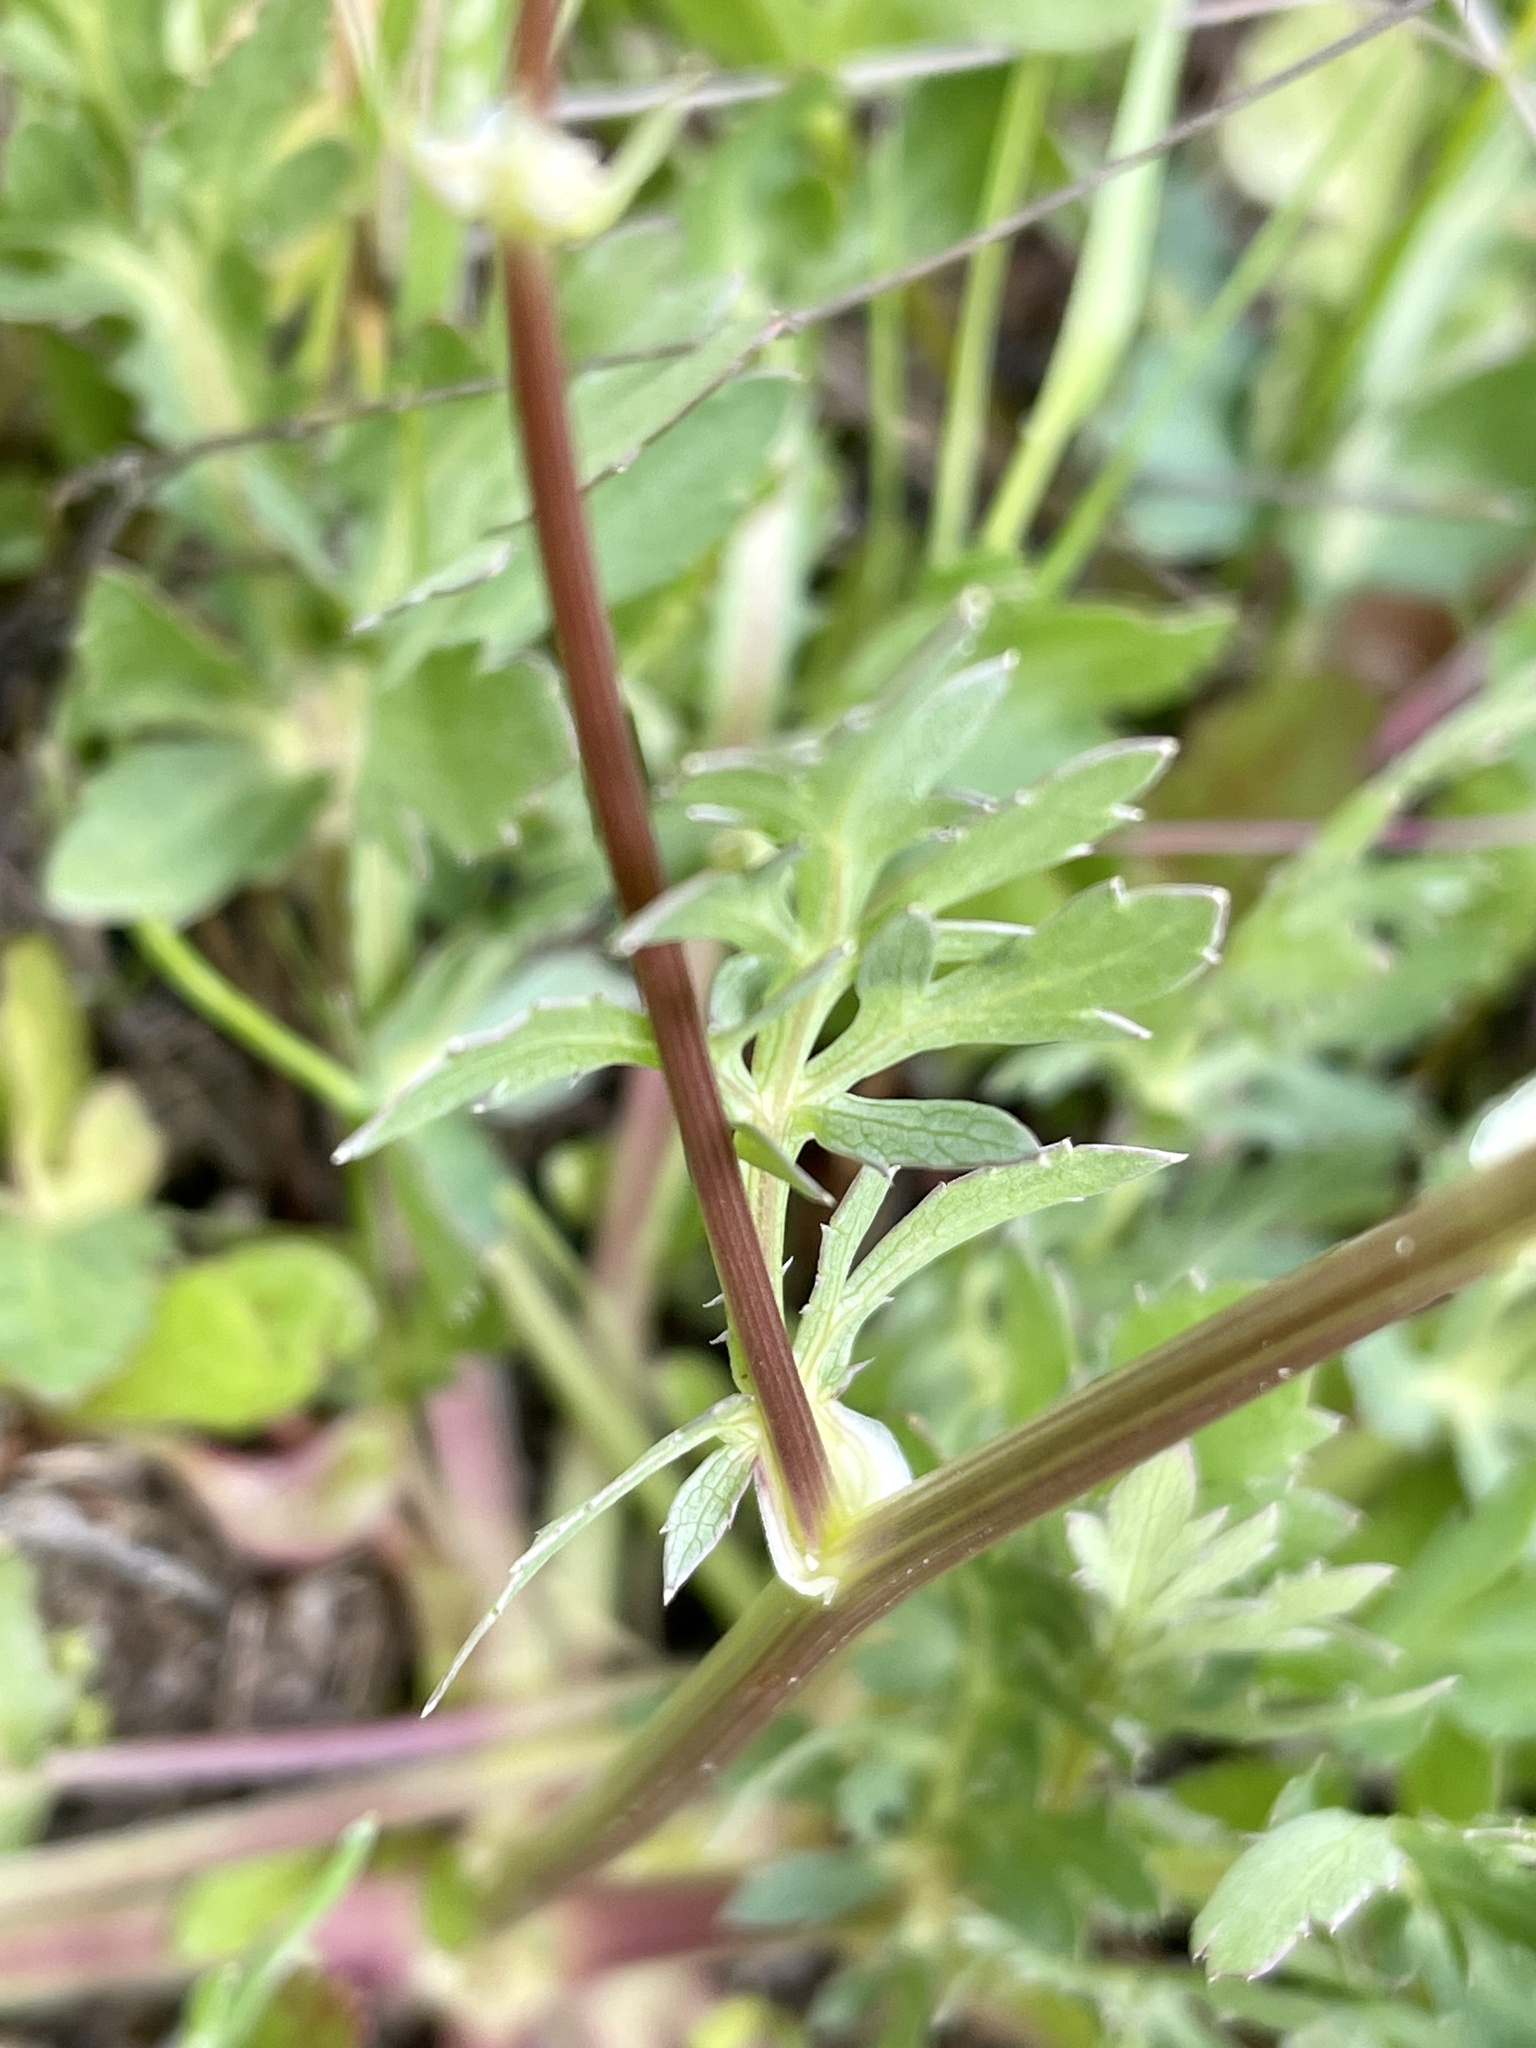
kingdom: Plantae
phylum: Tracheophyta
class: Magnoliopsida
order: Apiales
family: Apiaceae
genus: Sanicula
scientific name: Sanicula bipinnatifida
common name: Shoe-buttons
